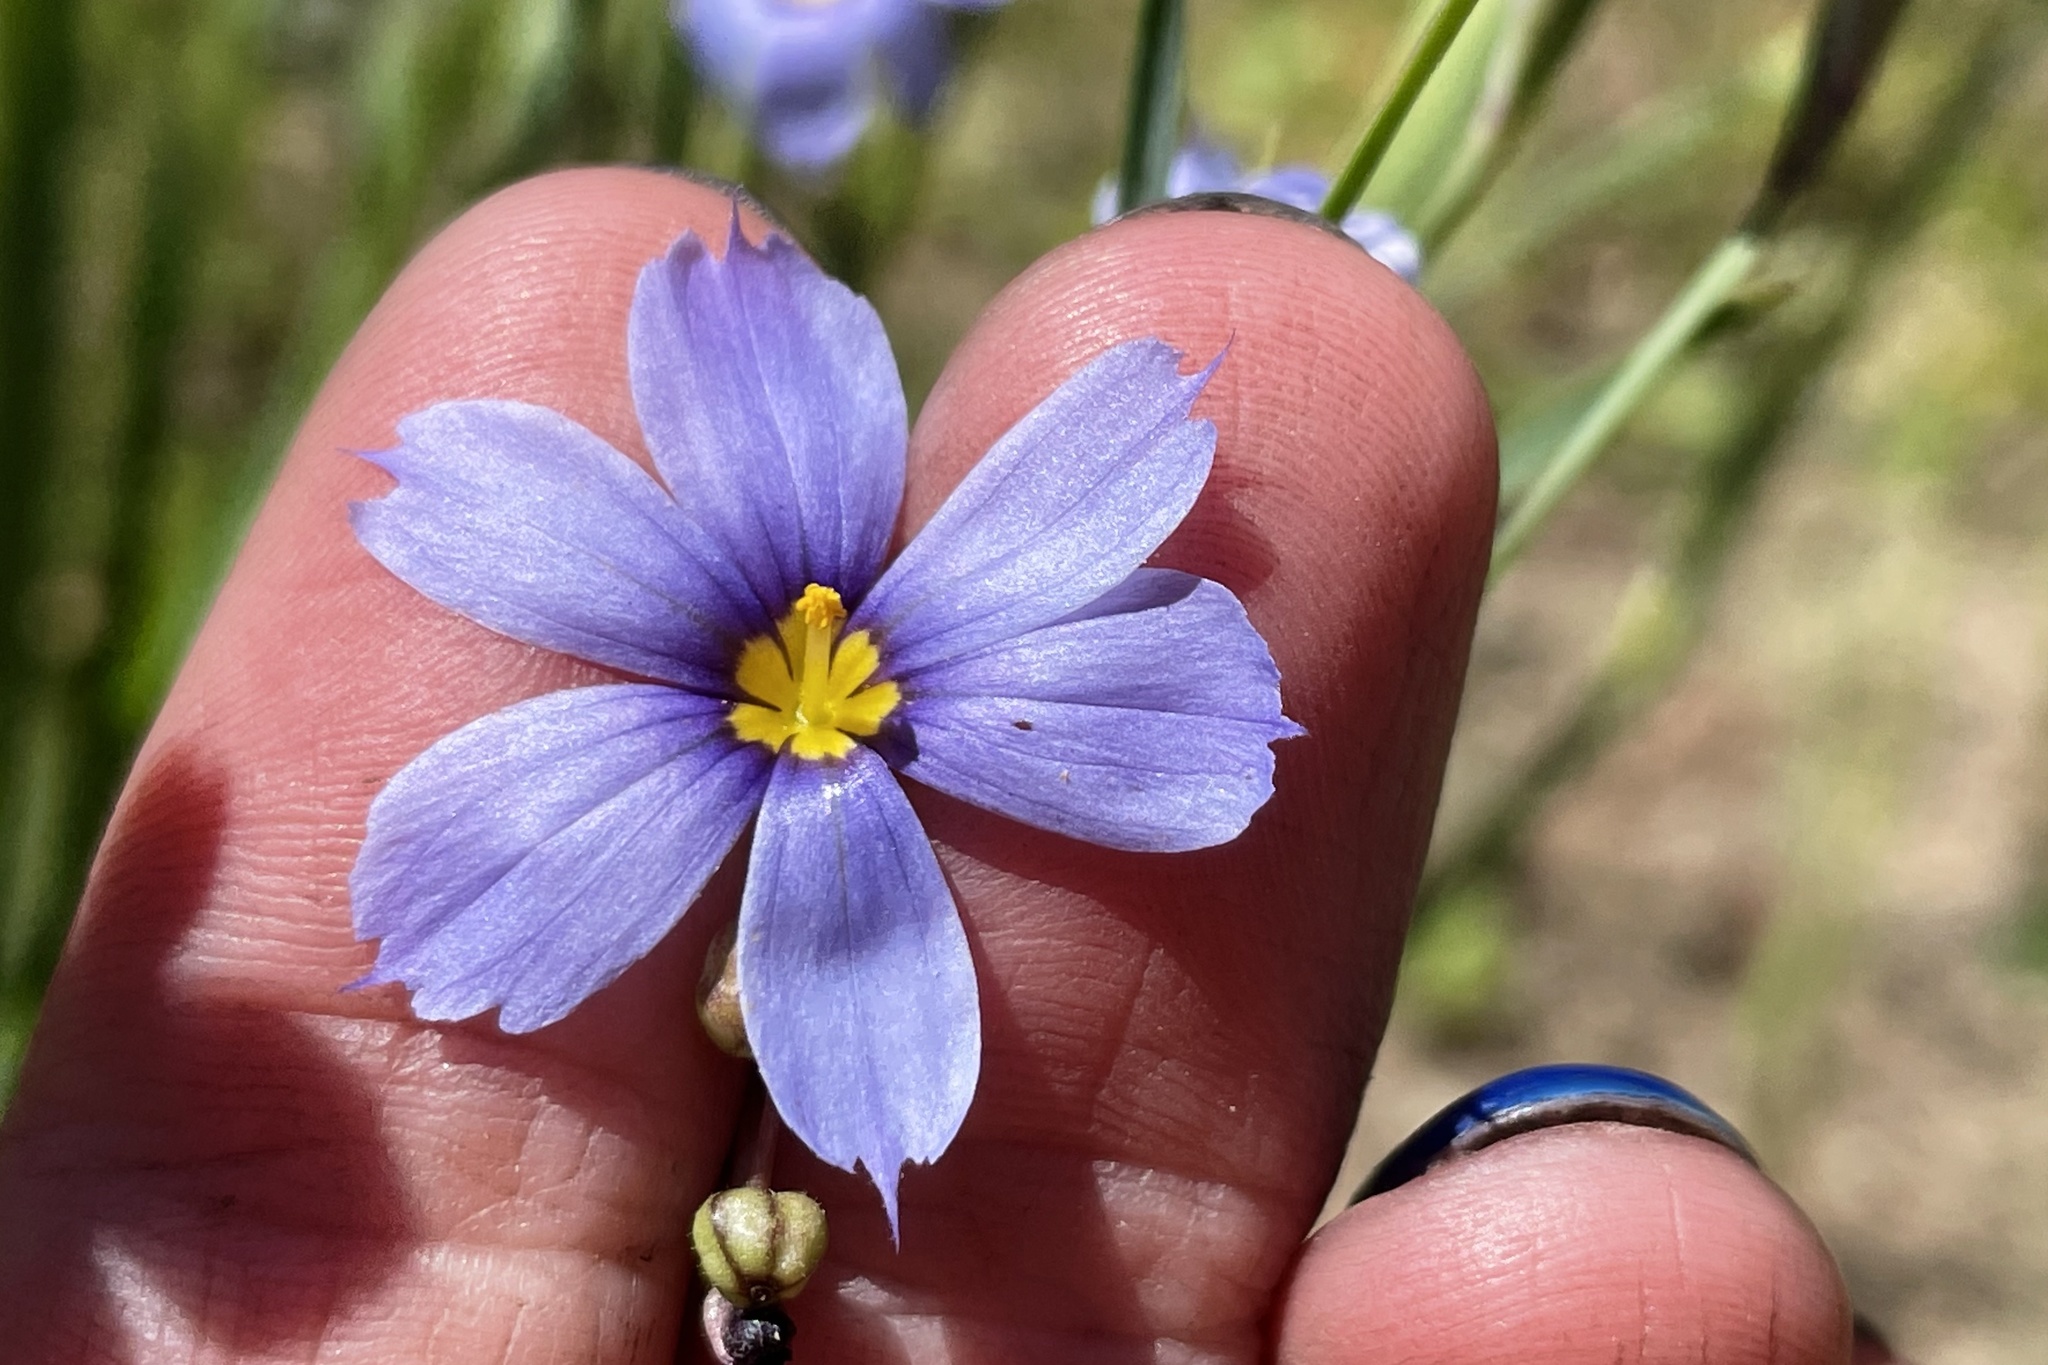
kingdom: Plantae
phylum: Tracheophyta
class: Liliopsida
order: Asparagales
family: Iridaceae
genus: Sisyrinchium
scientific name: Sisyrinchium bellum
